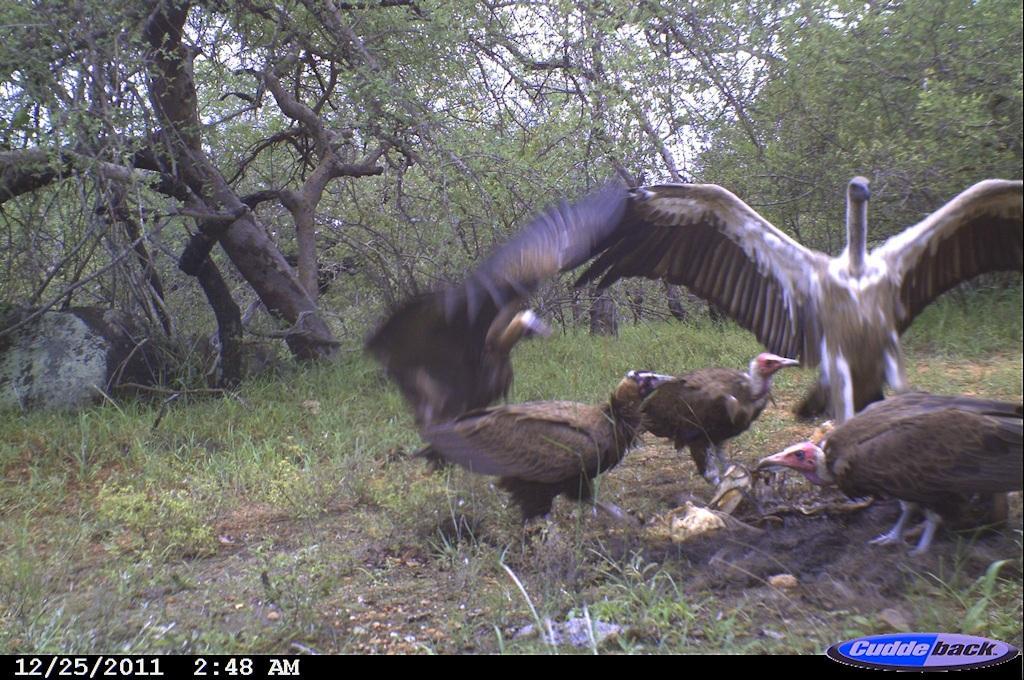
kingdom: Animalia
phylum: Chordata
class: Aves
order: Accipitriformes
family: Accipitridae
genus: Gyps
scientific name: Gyps africanus
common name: White-backed vulture
